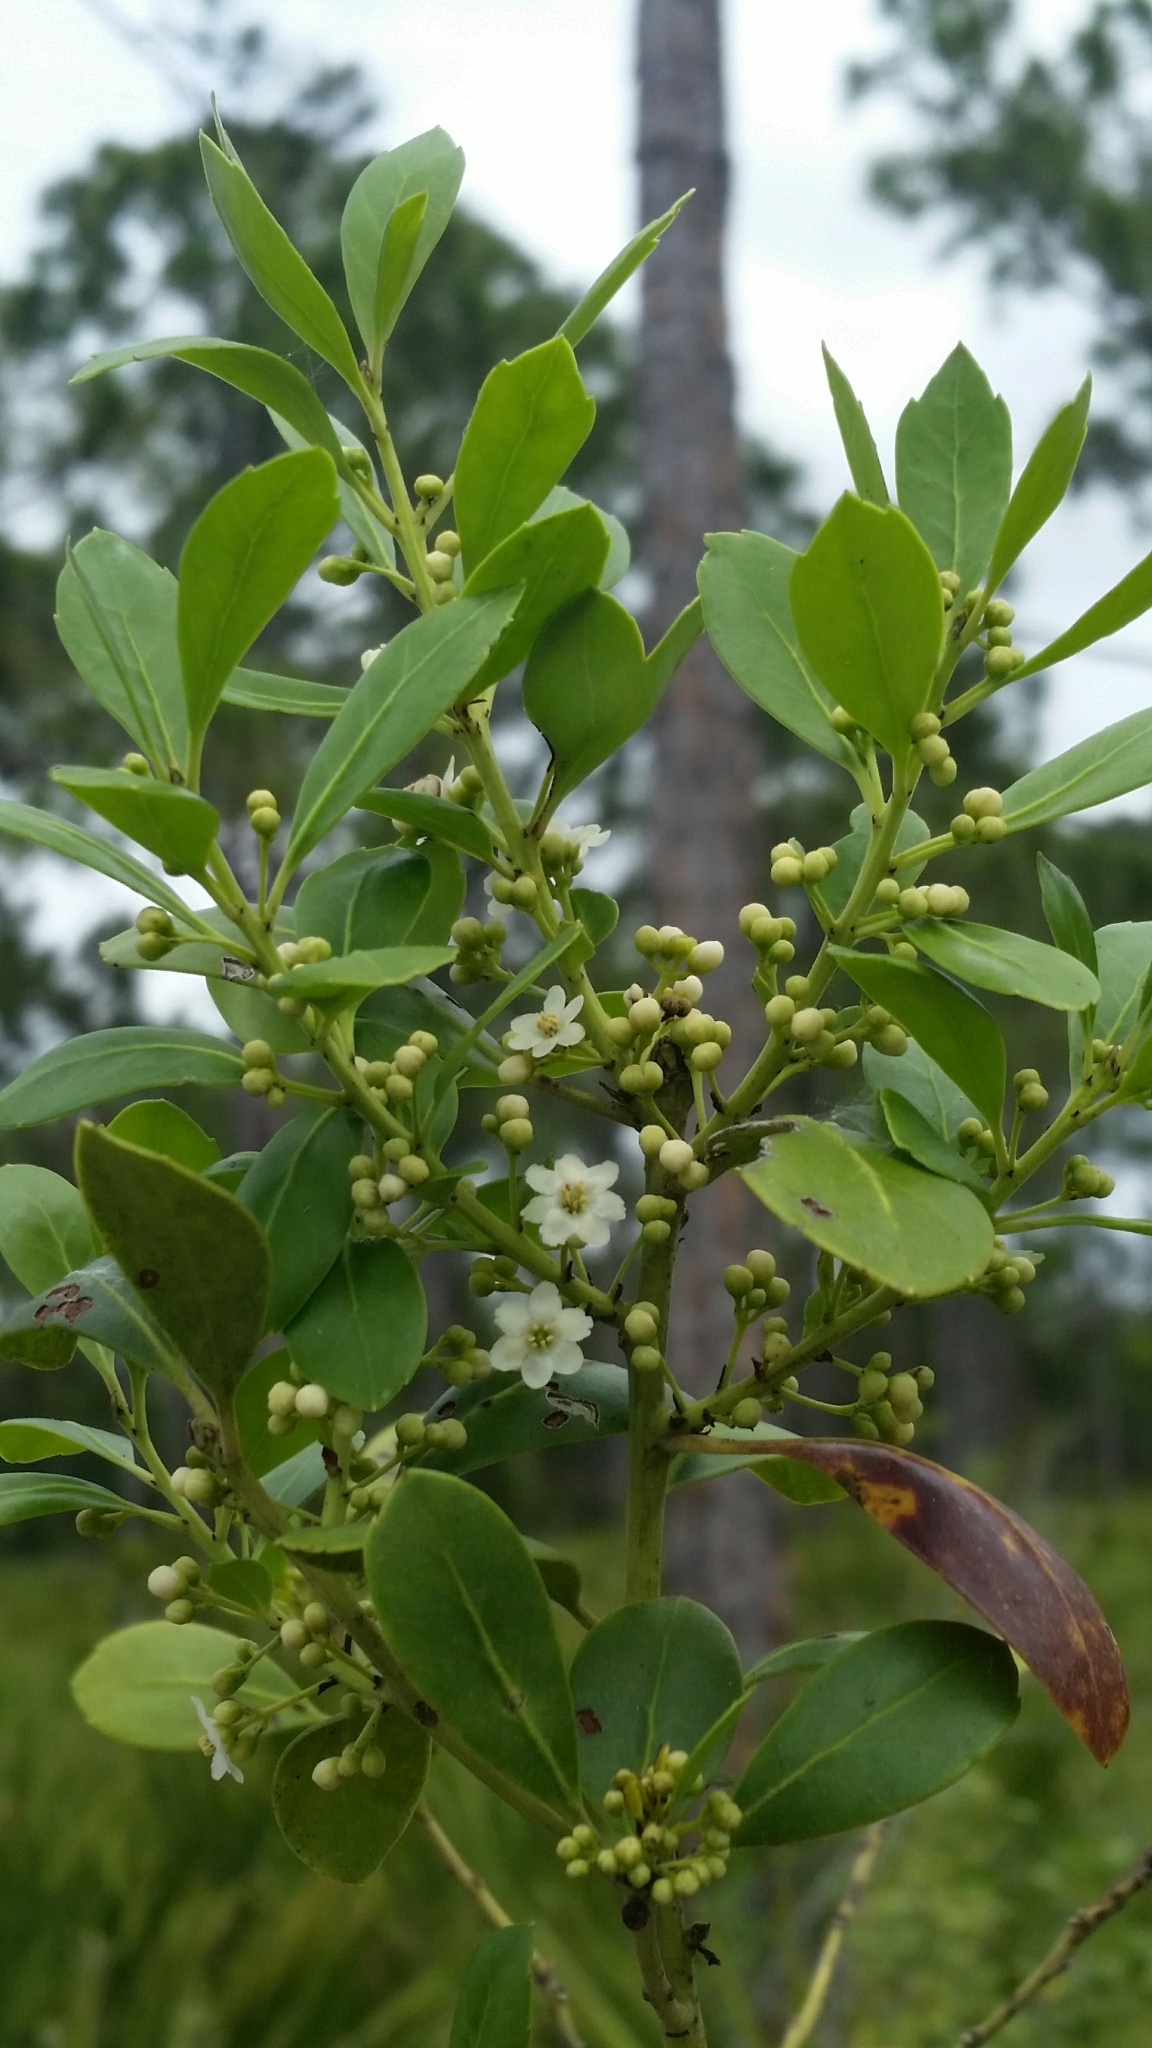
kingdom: Plantae
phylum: Tracheophyta
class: Magnoliopsida
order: Aquifoliales
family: Aquifoliaceae
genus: Ilex
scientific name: Ilex glabra
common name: Bitter gallberry
